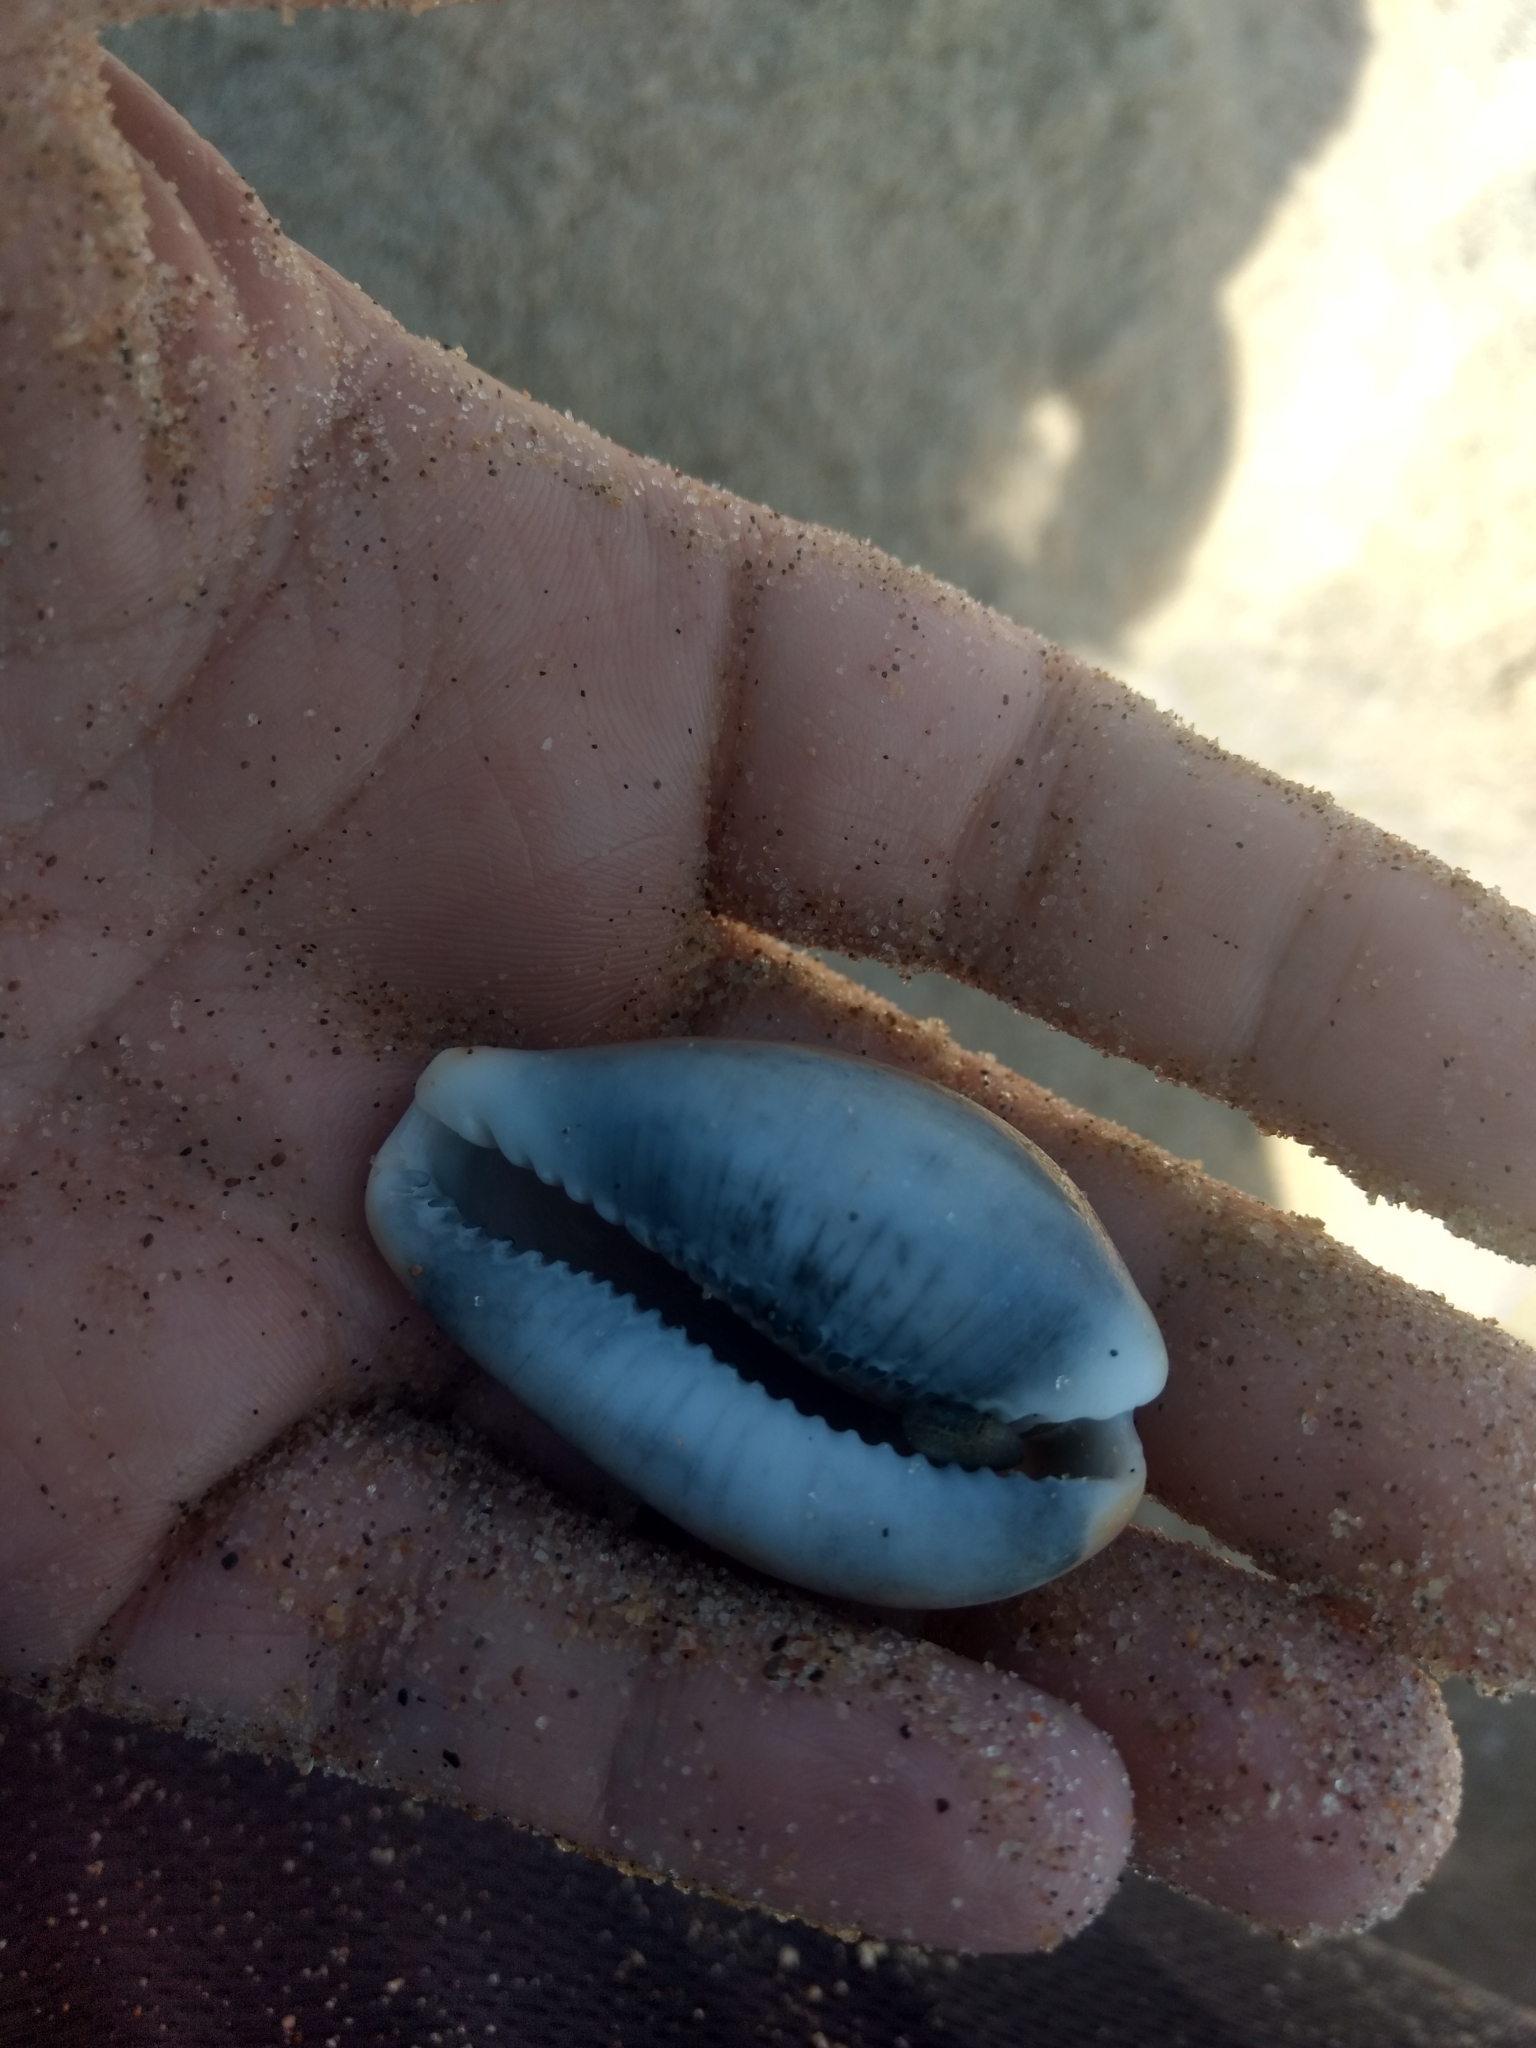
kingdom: Animalia
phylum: Mollusca
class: Gastropoda
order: Littorinimorpha
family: Cypraeidae
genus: Neobernaya
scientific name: Neobernaya spadicea
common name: Chestnut cowrie
